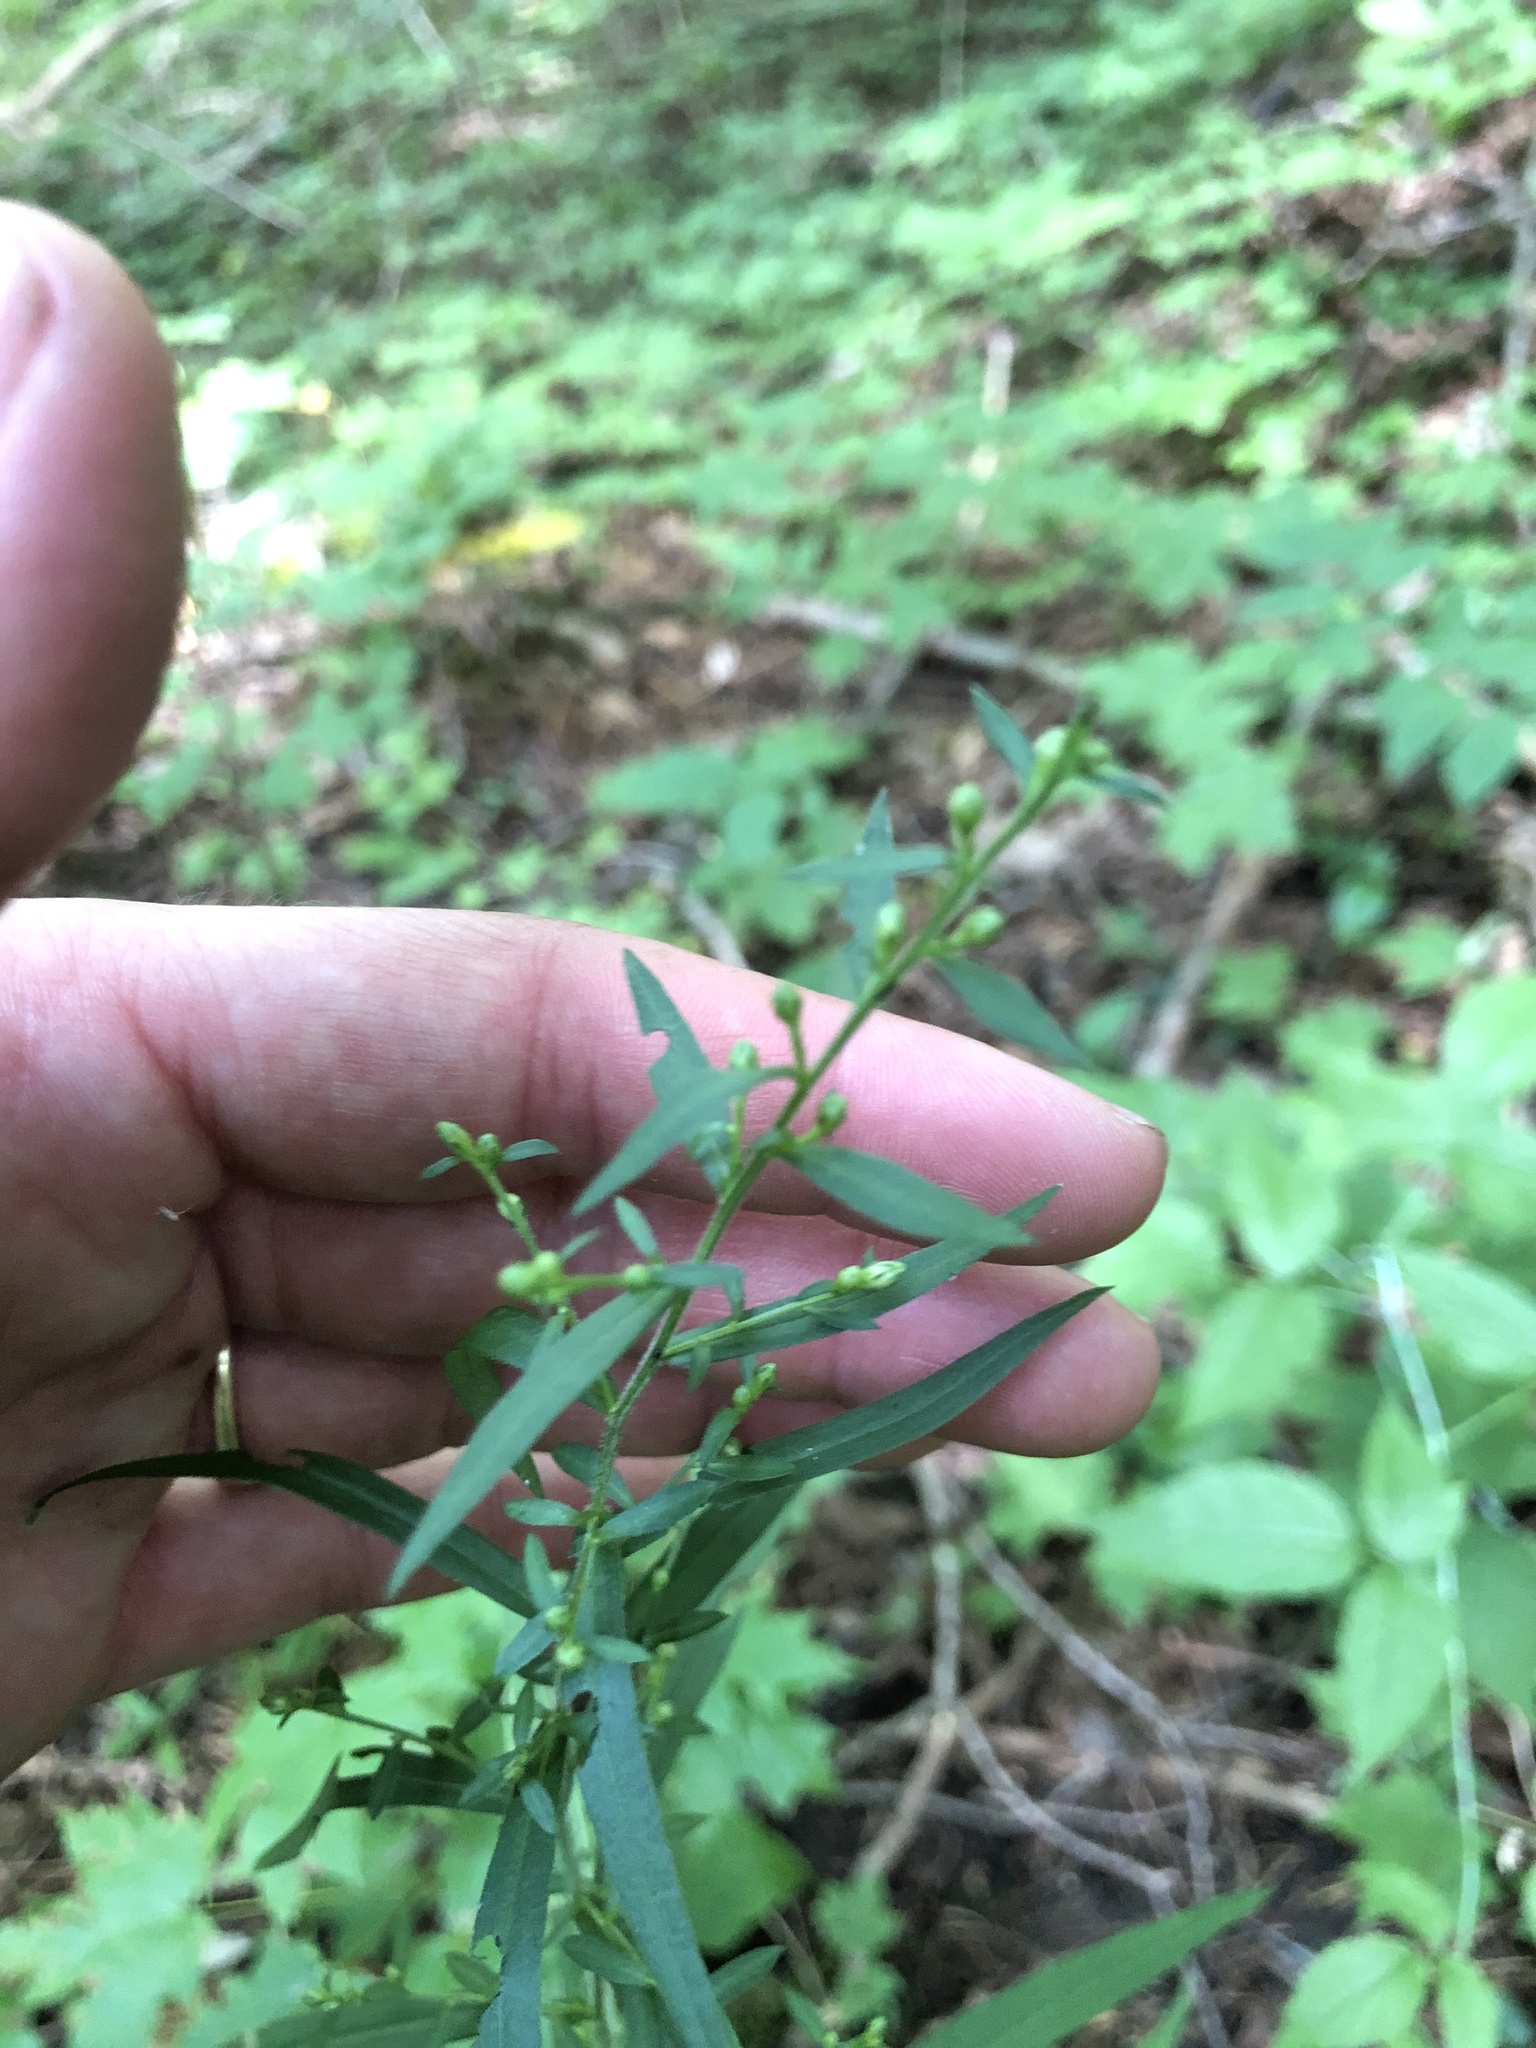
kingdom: Plantae
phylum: Tracheophyta
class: Magnoliopsida
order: Asterales
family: Asteraceae
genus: Symphyotrichum
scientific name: Symphyotrichum lateriflorum
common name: Calico aster
